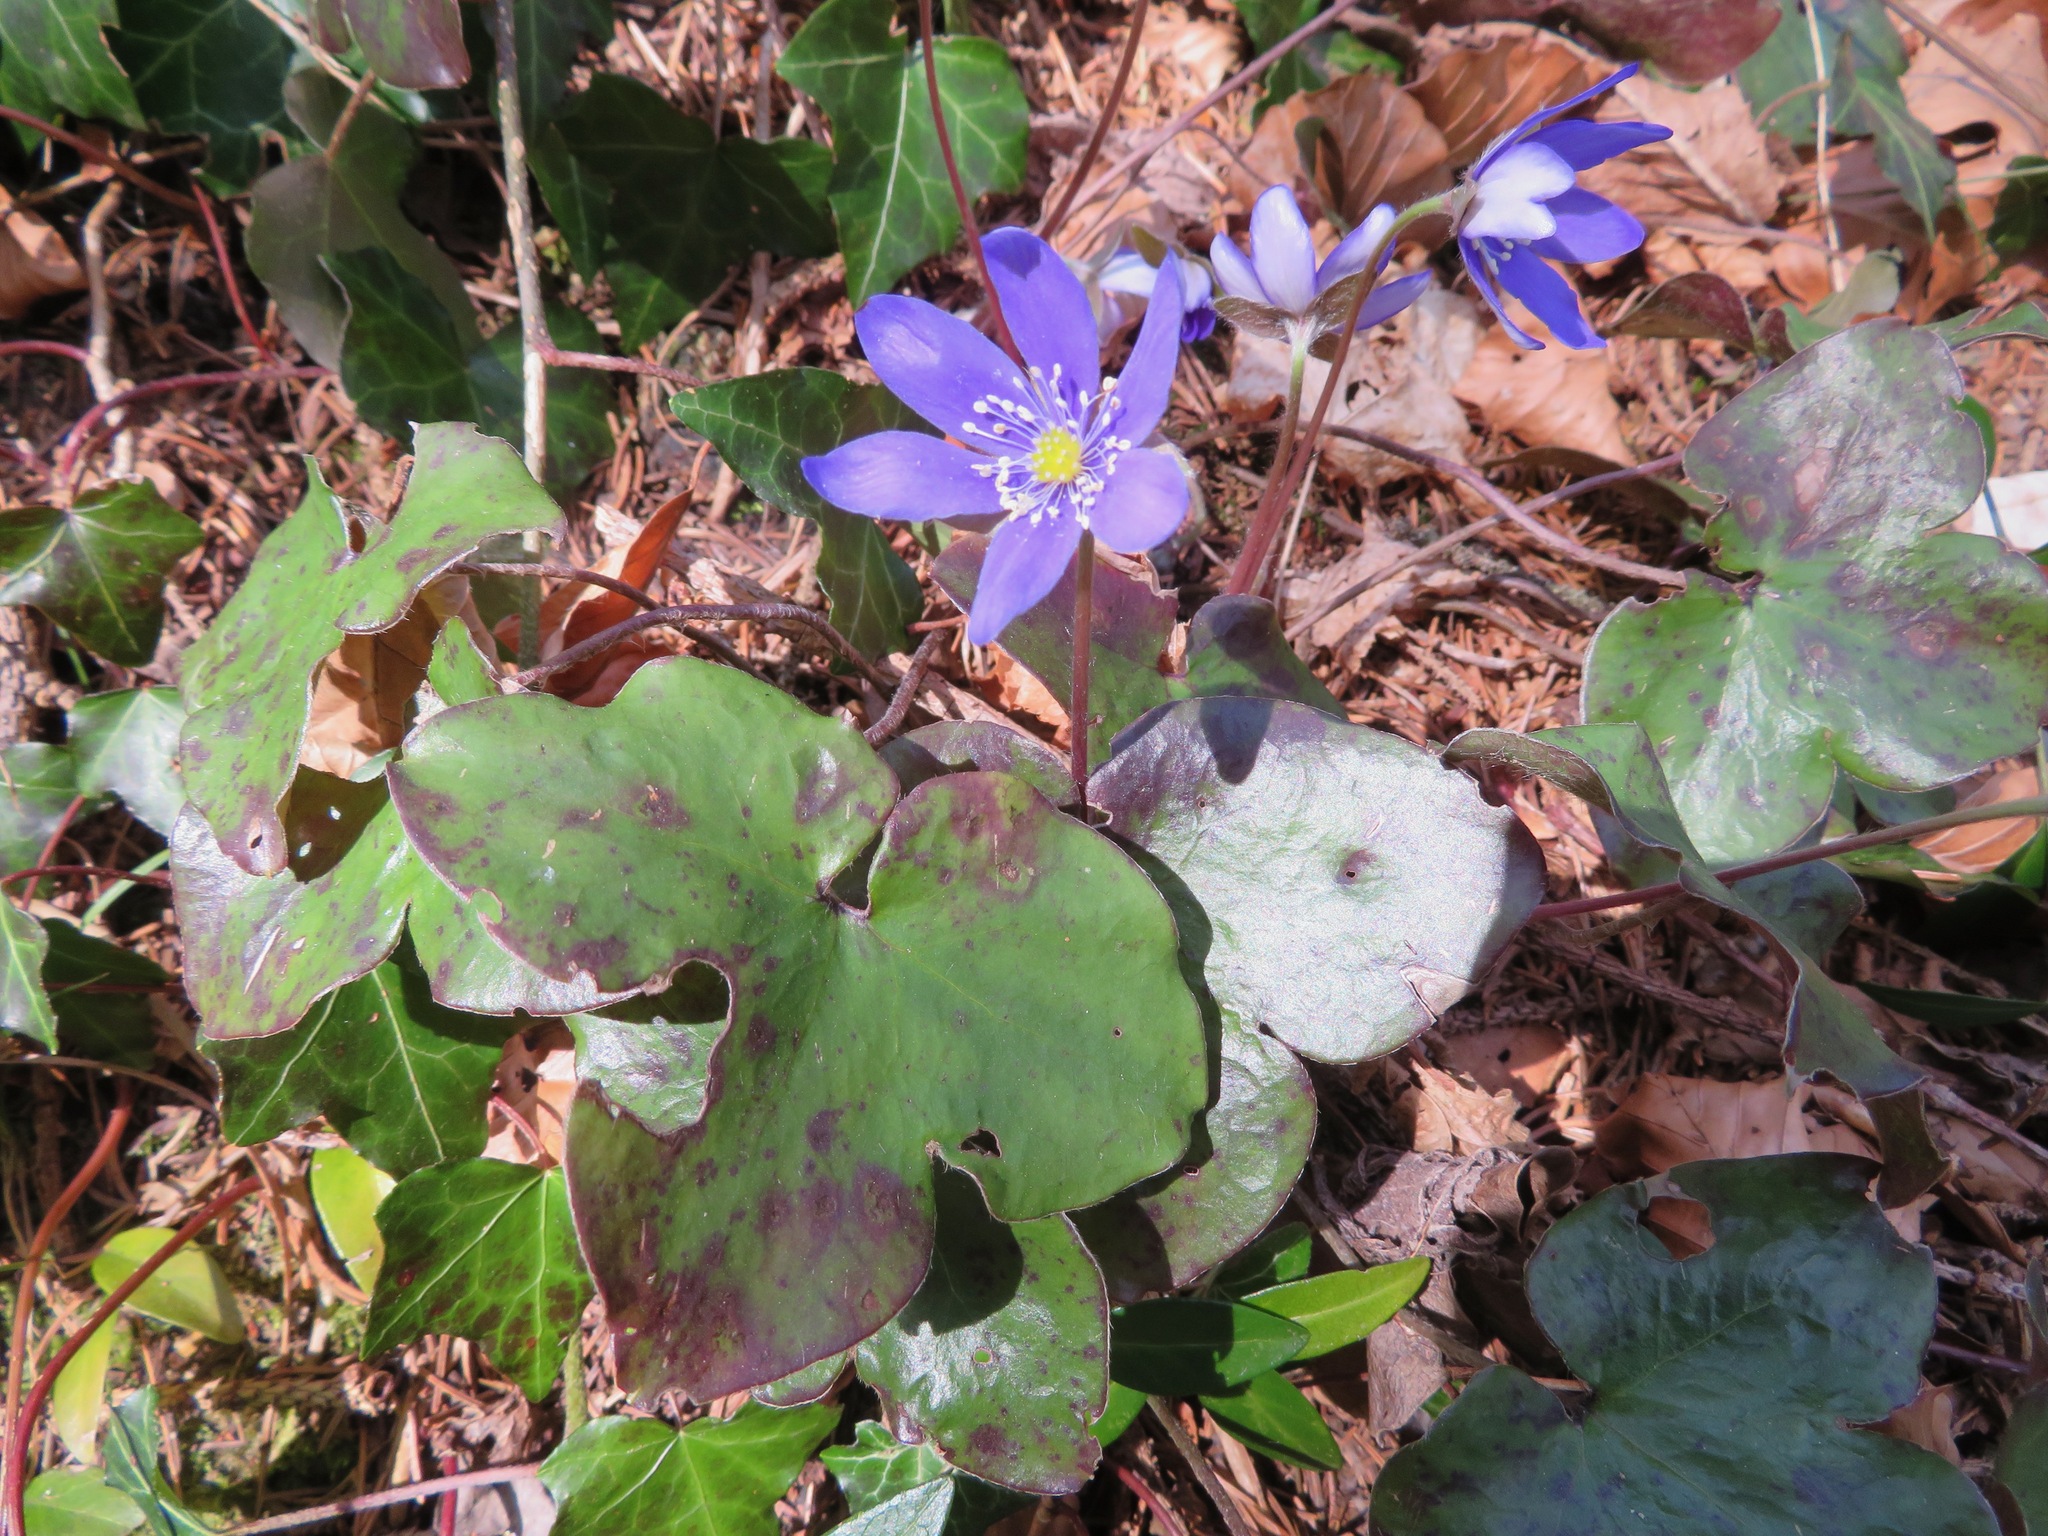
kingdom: Plantae
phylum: Tracheophyta
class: Magnoliopsida
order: Ranunculales
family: Ranunculaceae
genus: Hepatica
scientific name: Hepatica nobilis
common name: Liverleaf
